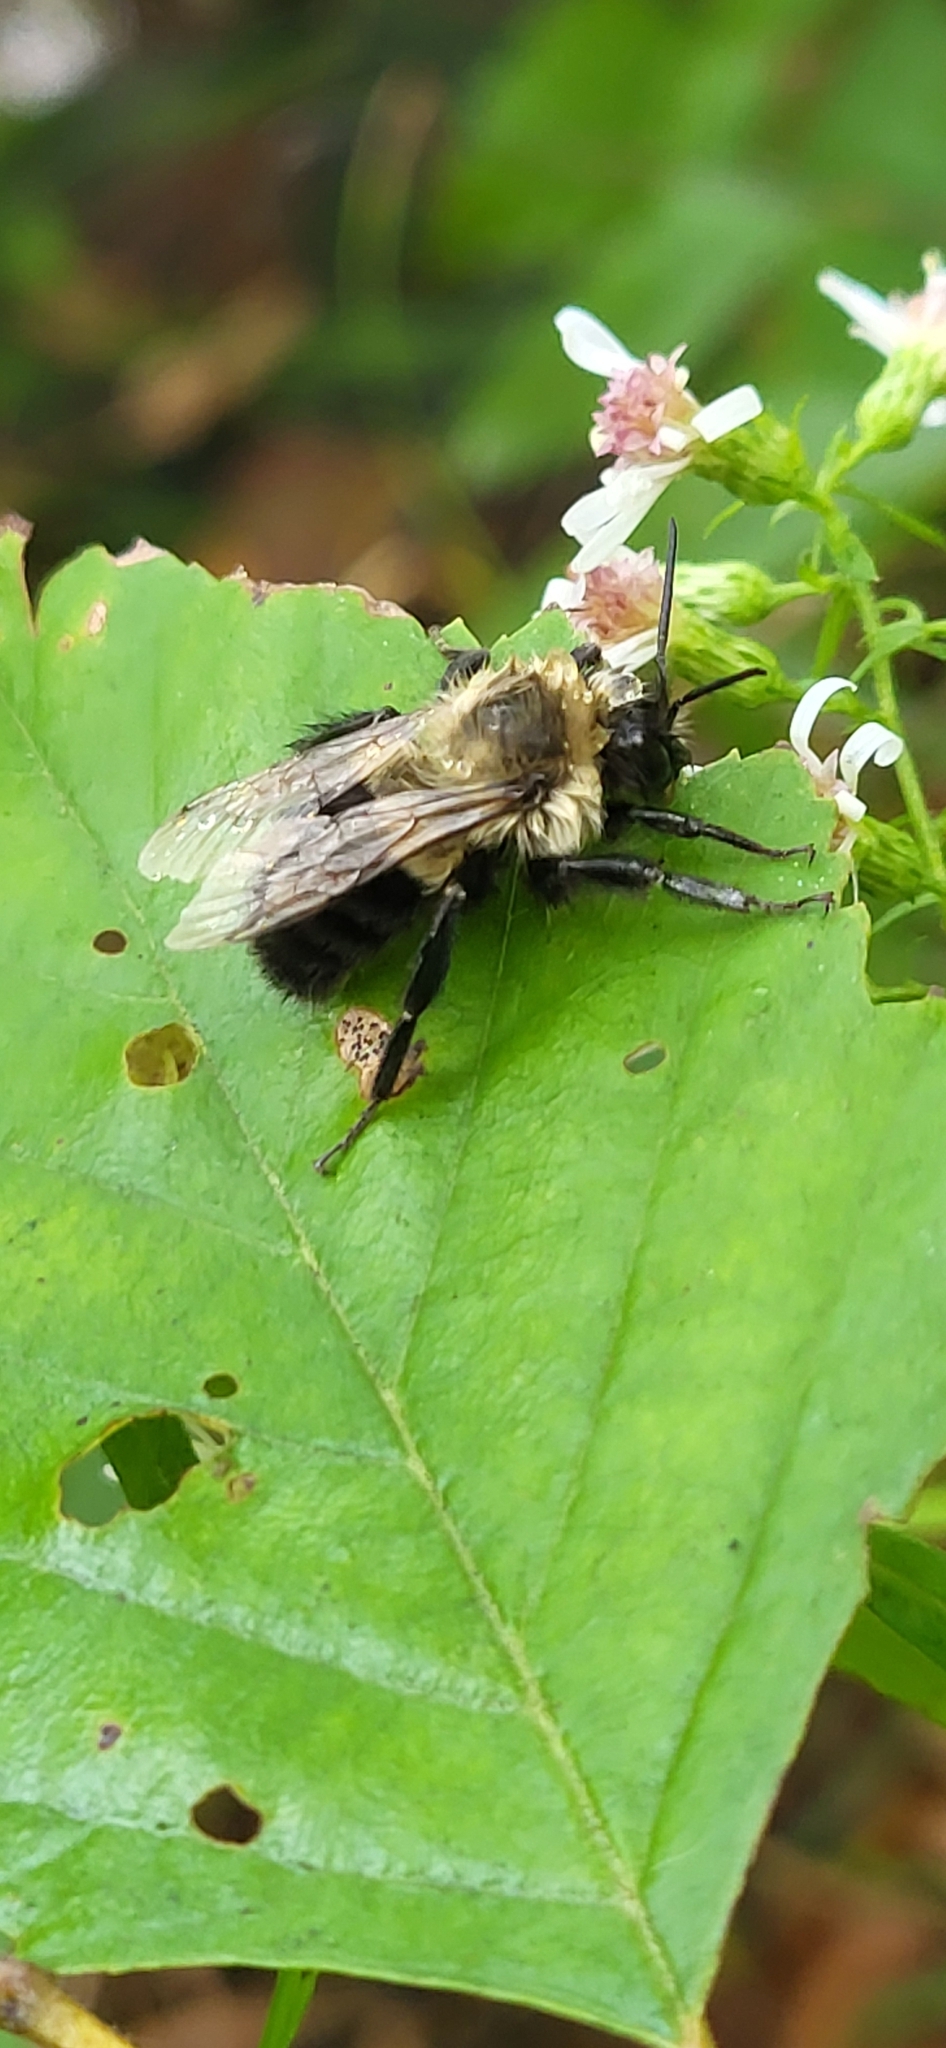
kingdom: Animalia
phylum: Arthropoda
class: Insecta
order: Hymenoptera
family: Apidae
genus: Bombus
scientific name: Bombus impatiens
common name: Common eastern bumble bee
